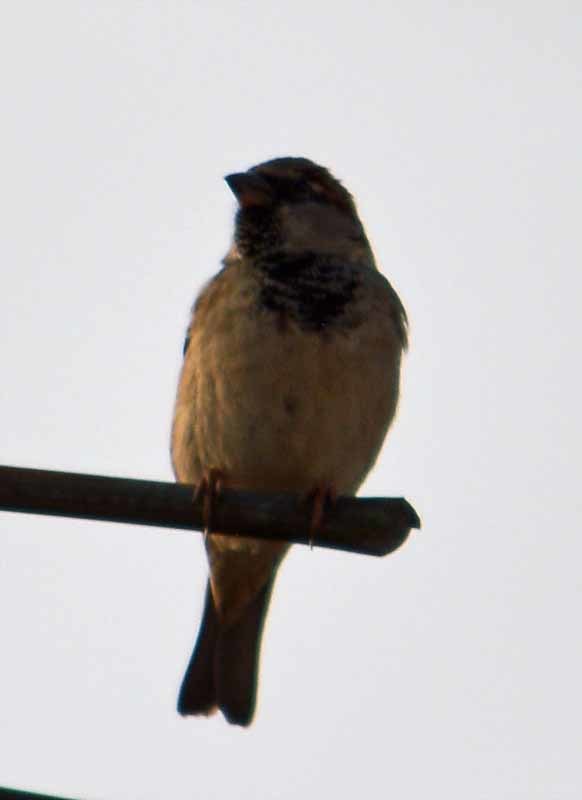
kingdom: Animalia
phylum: Chordata
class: Aves
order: Passeriformes
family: Passeridae
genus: Passer
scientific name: Passer domesticus
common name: House sparrow
